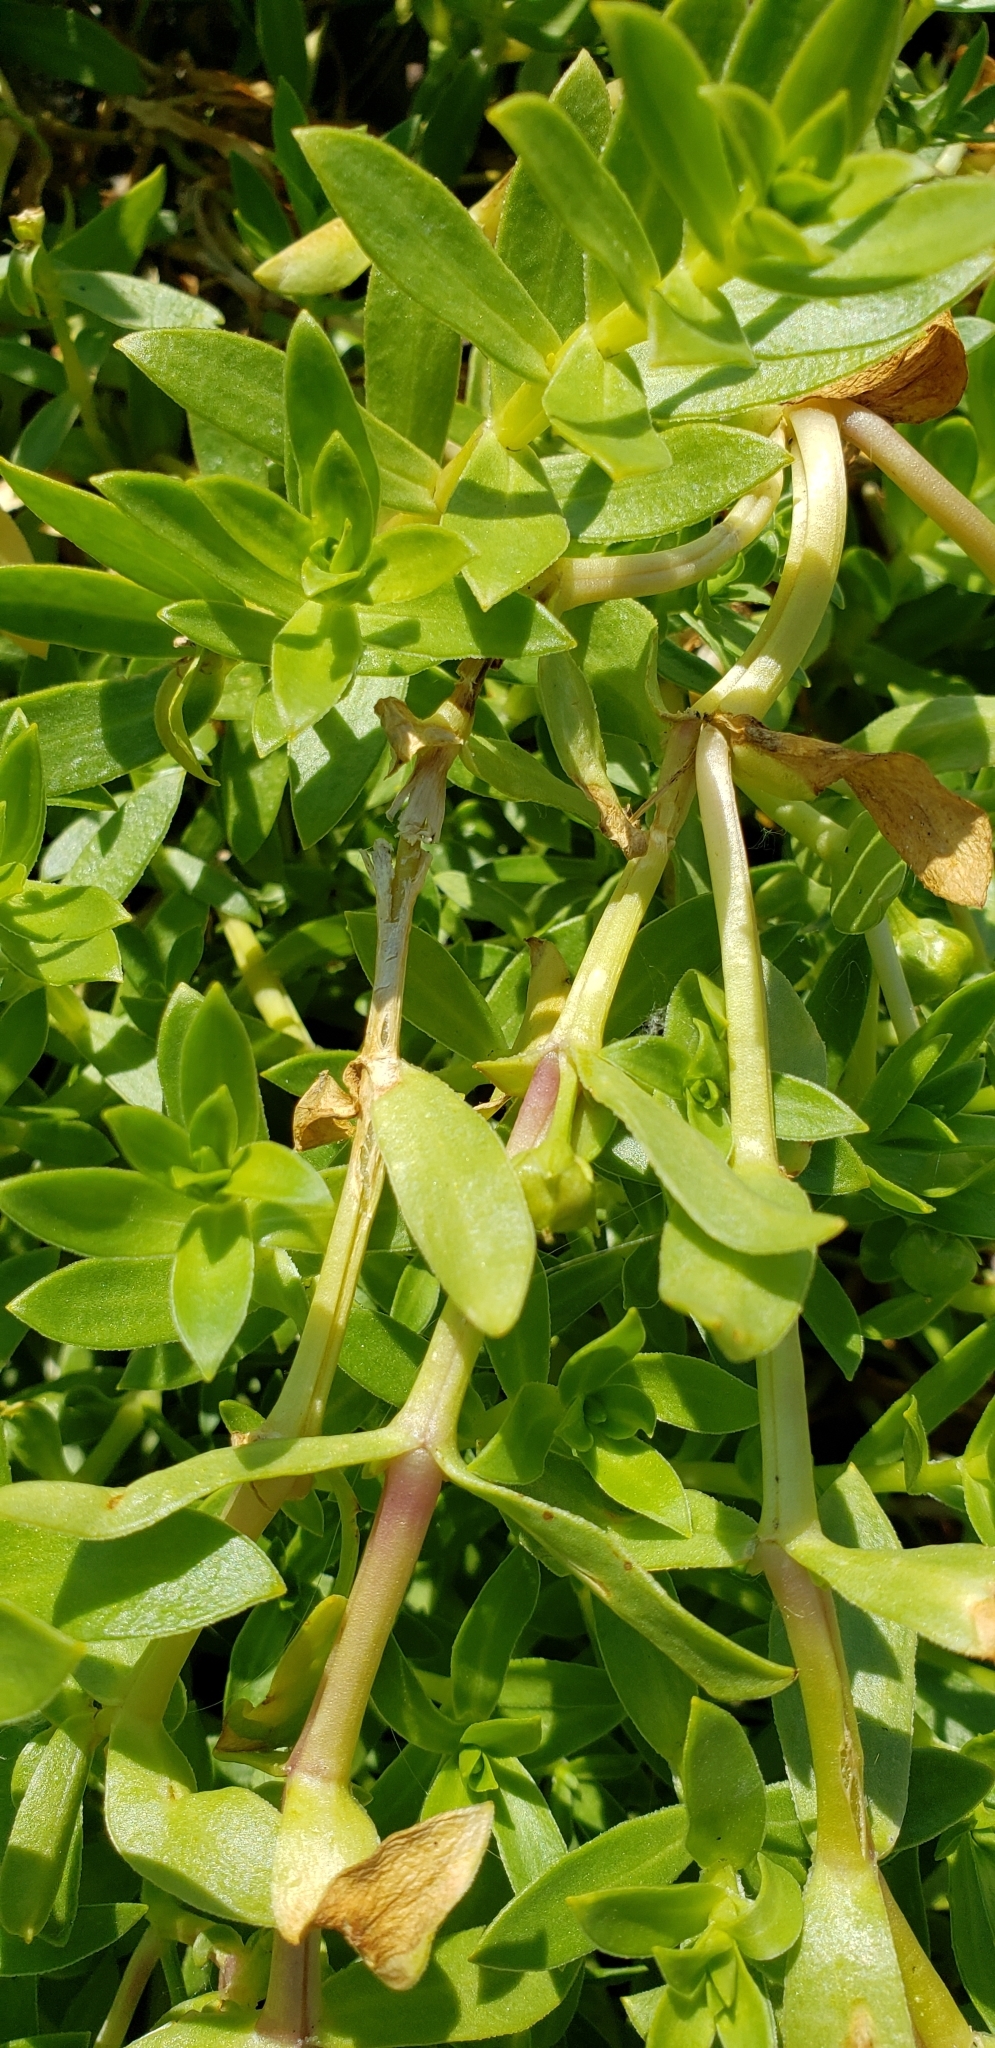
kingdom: Plantae
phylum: Tracheophyta
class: Magnoliopsida
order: Caryophyllales
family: Caryophyllaceae
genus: Honckenya
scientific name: Honckenya peploides
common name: Sea sandwort
